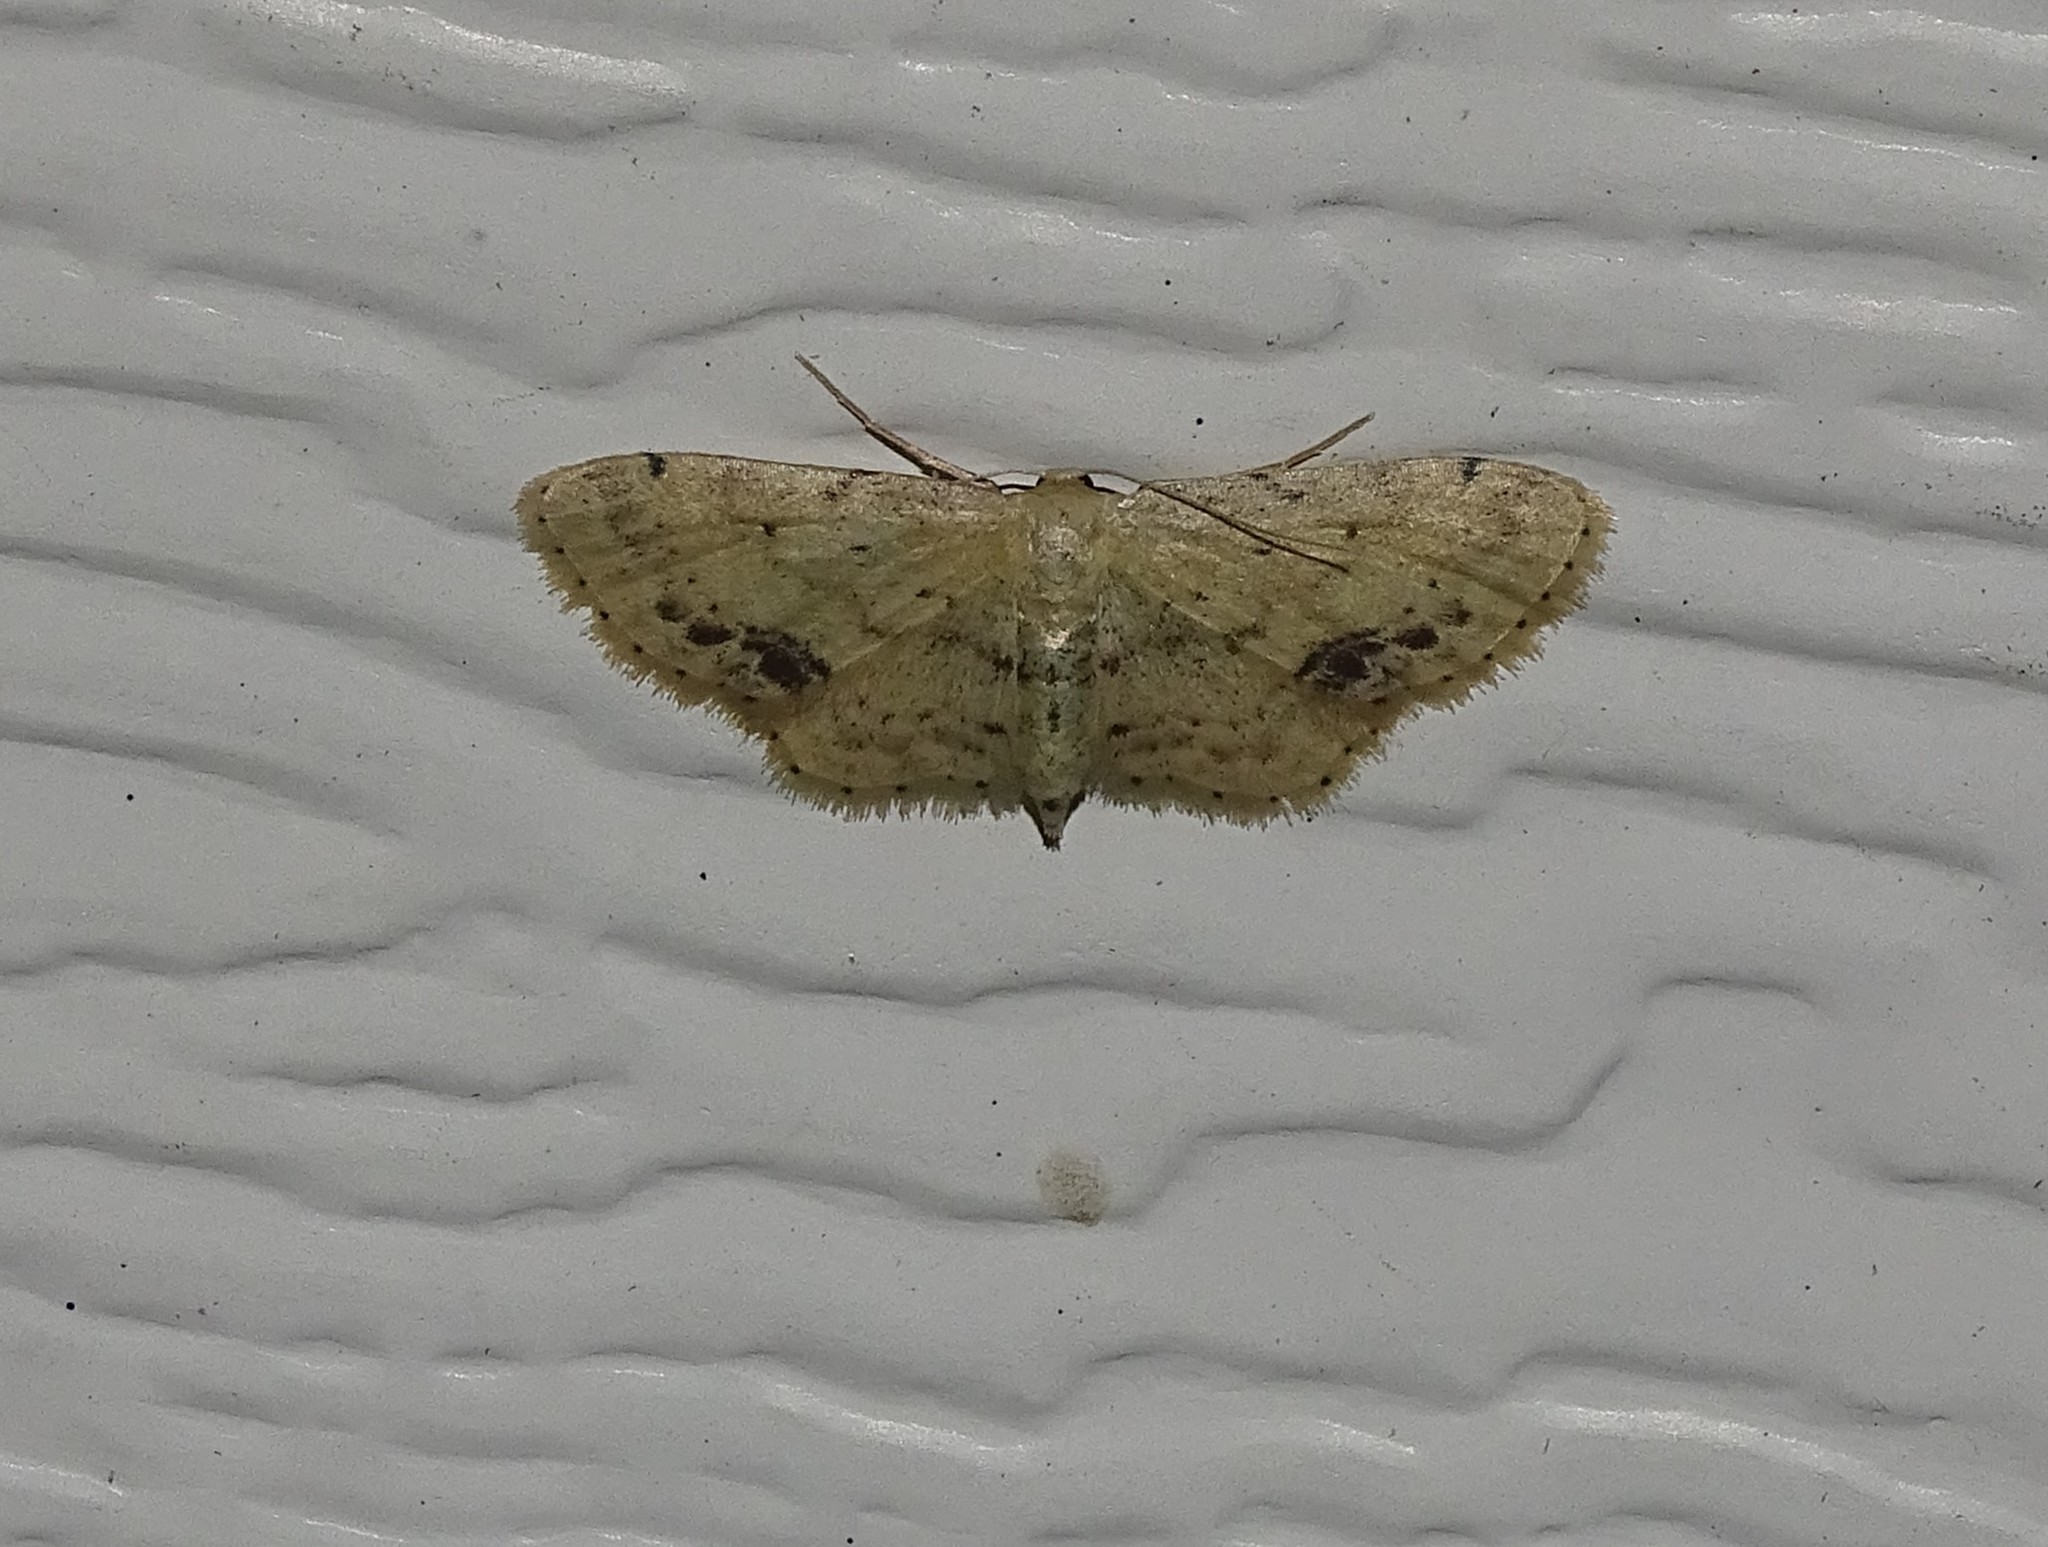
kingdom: Animalia
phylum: Arthropoda
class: Insecta
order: Lepidoptera
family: Geometridae
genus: Idaea
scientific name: Idaea dimidiata
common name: Single-dotted wave
